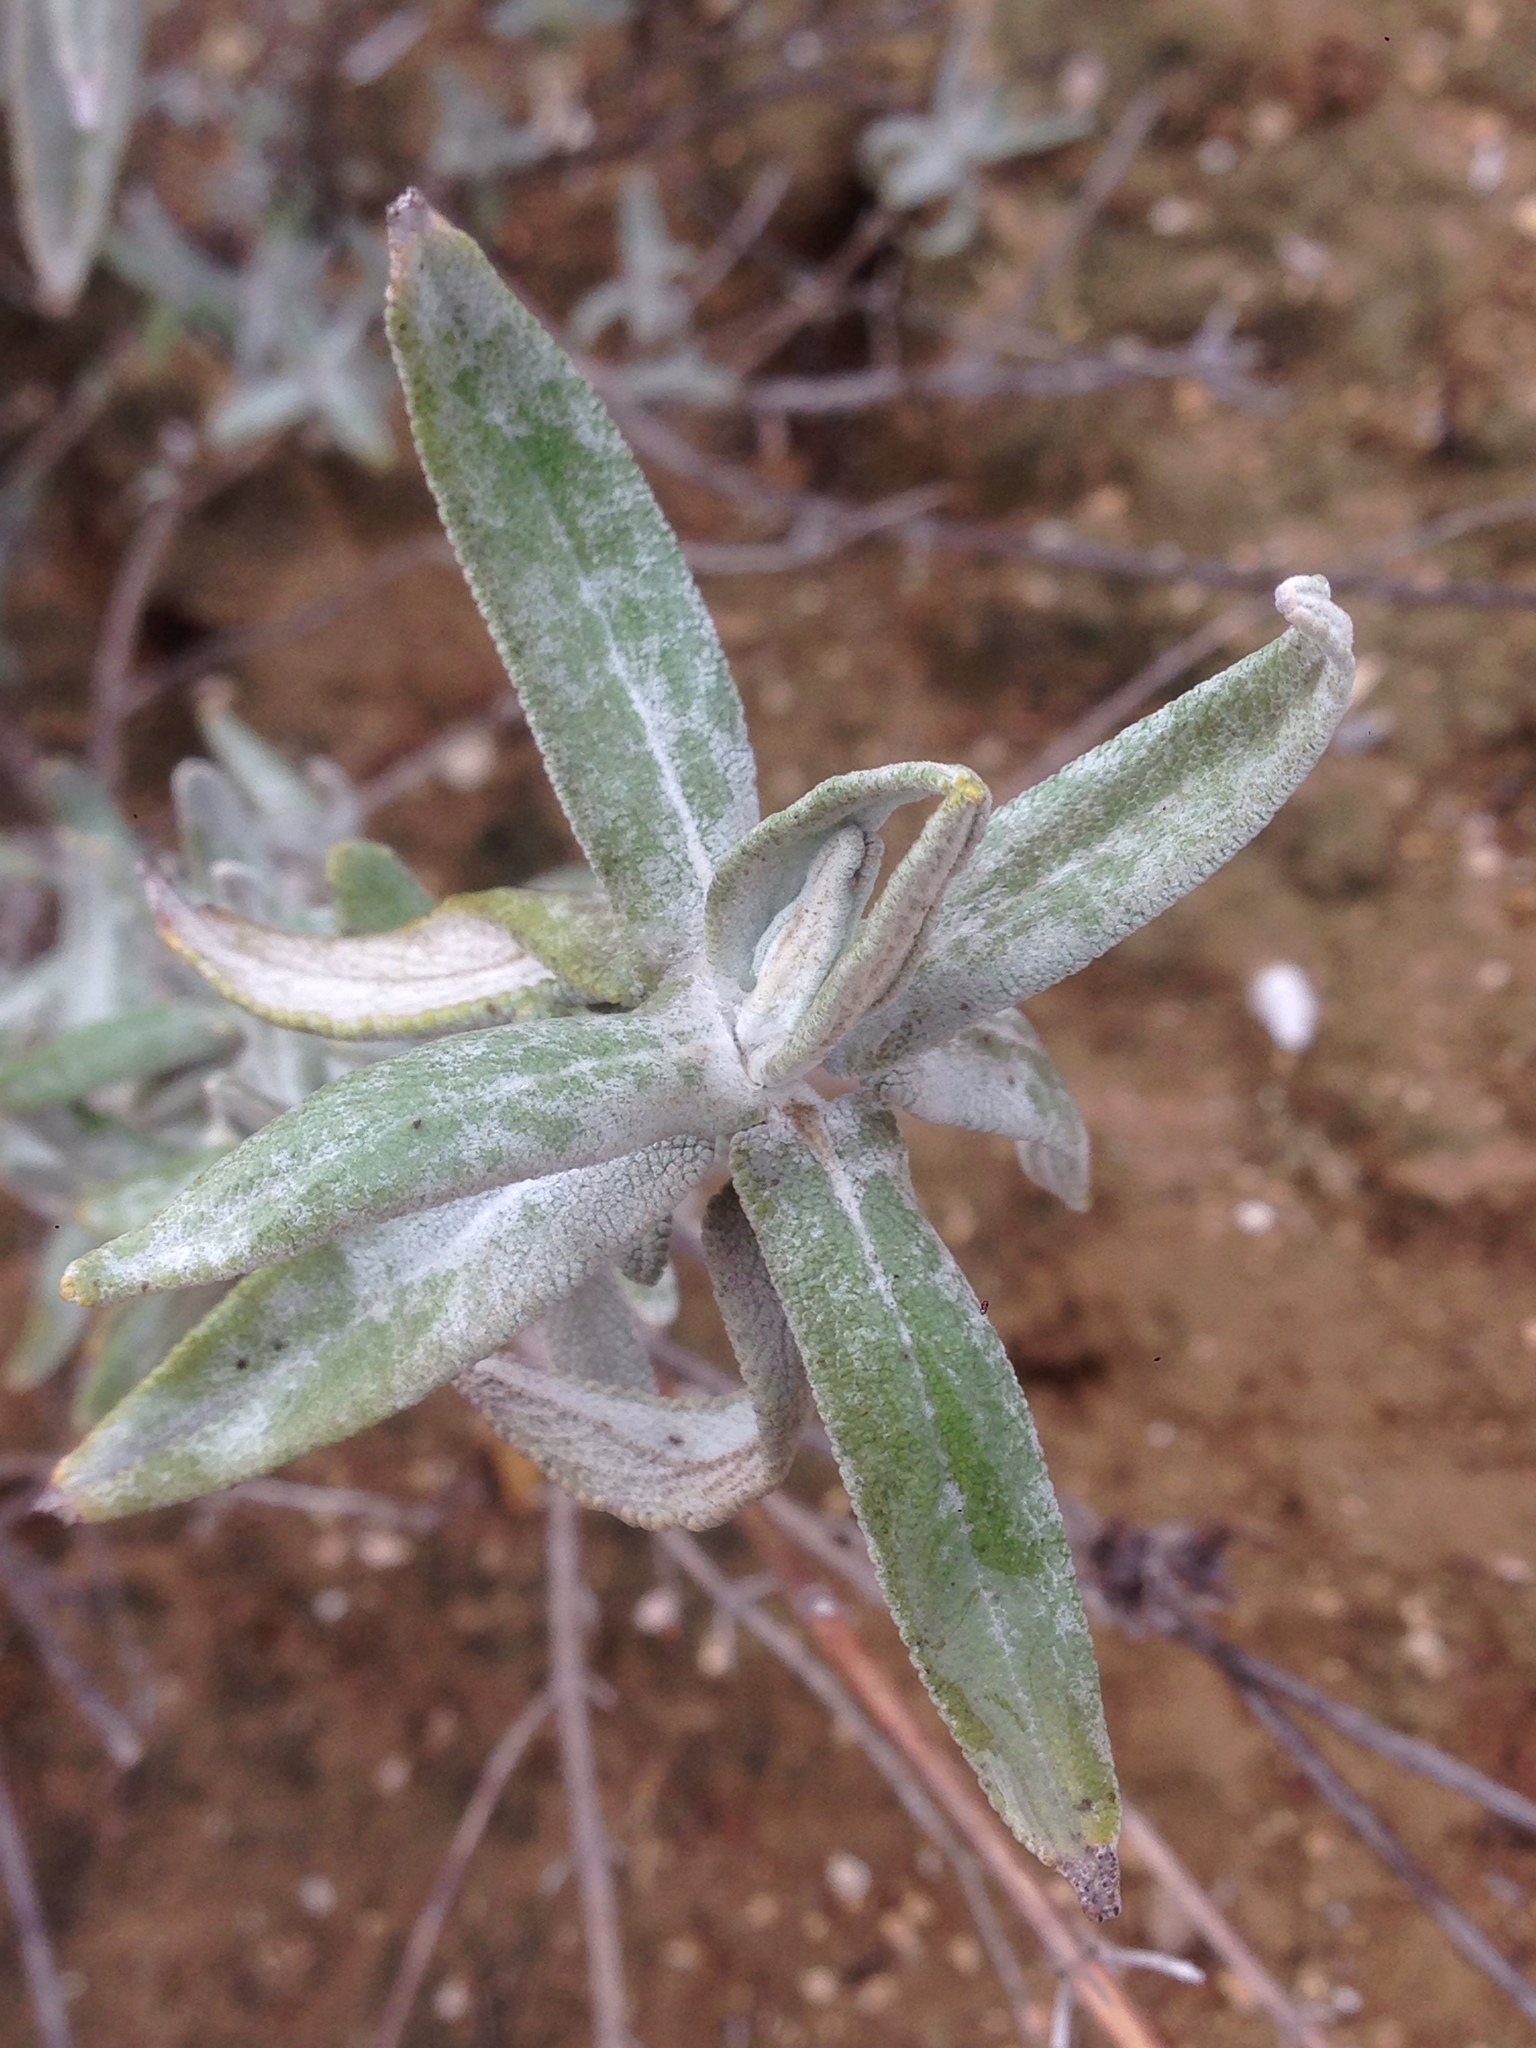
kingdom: Plantae
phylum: Tracheophyta
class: Magnoliopsida
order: Lamiales
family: Lamiaceae
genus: Salvia
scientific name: Salvia leucophylla
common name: Purple sage
